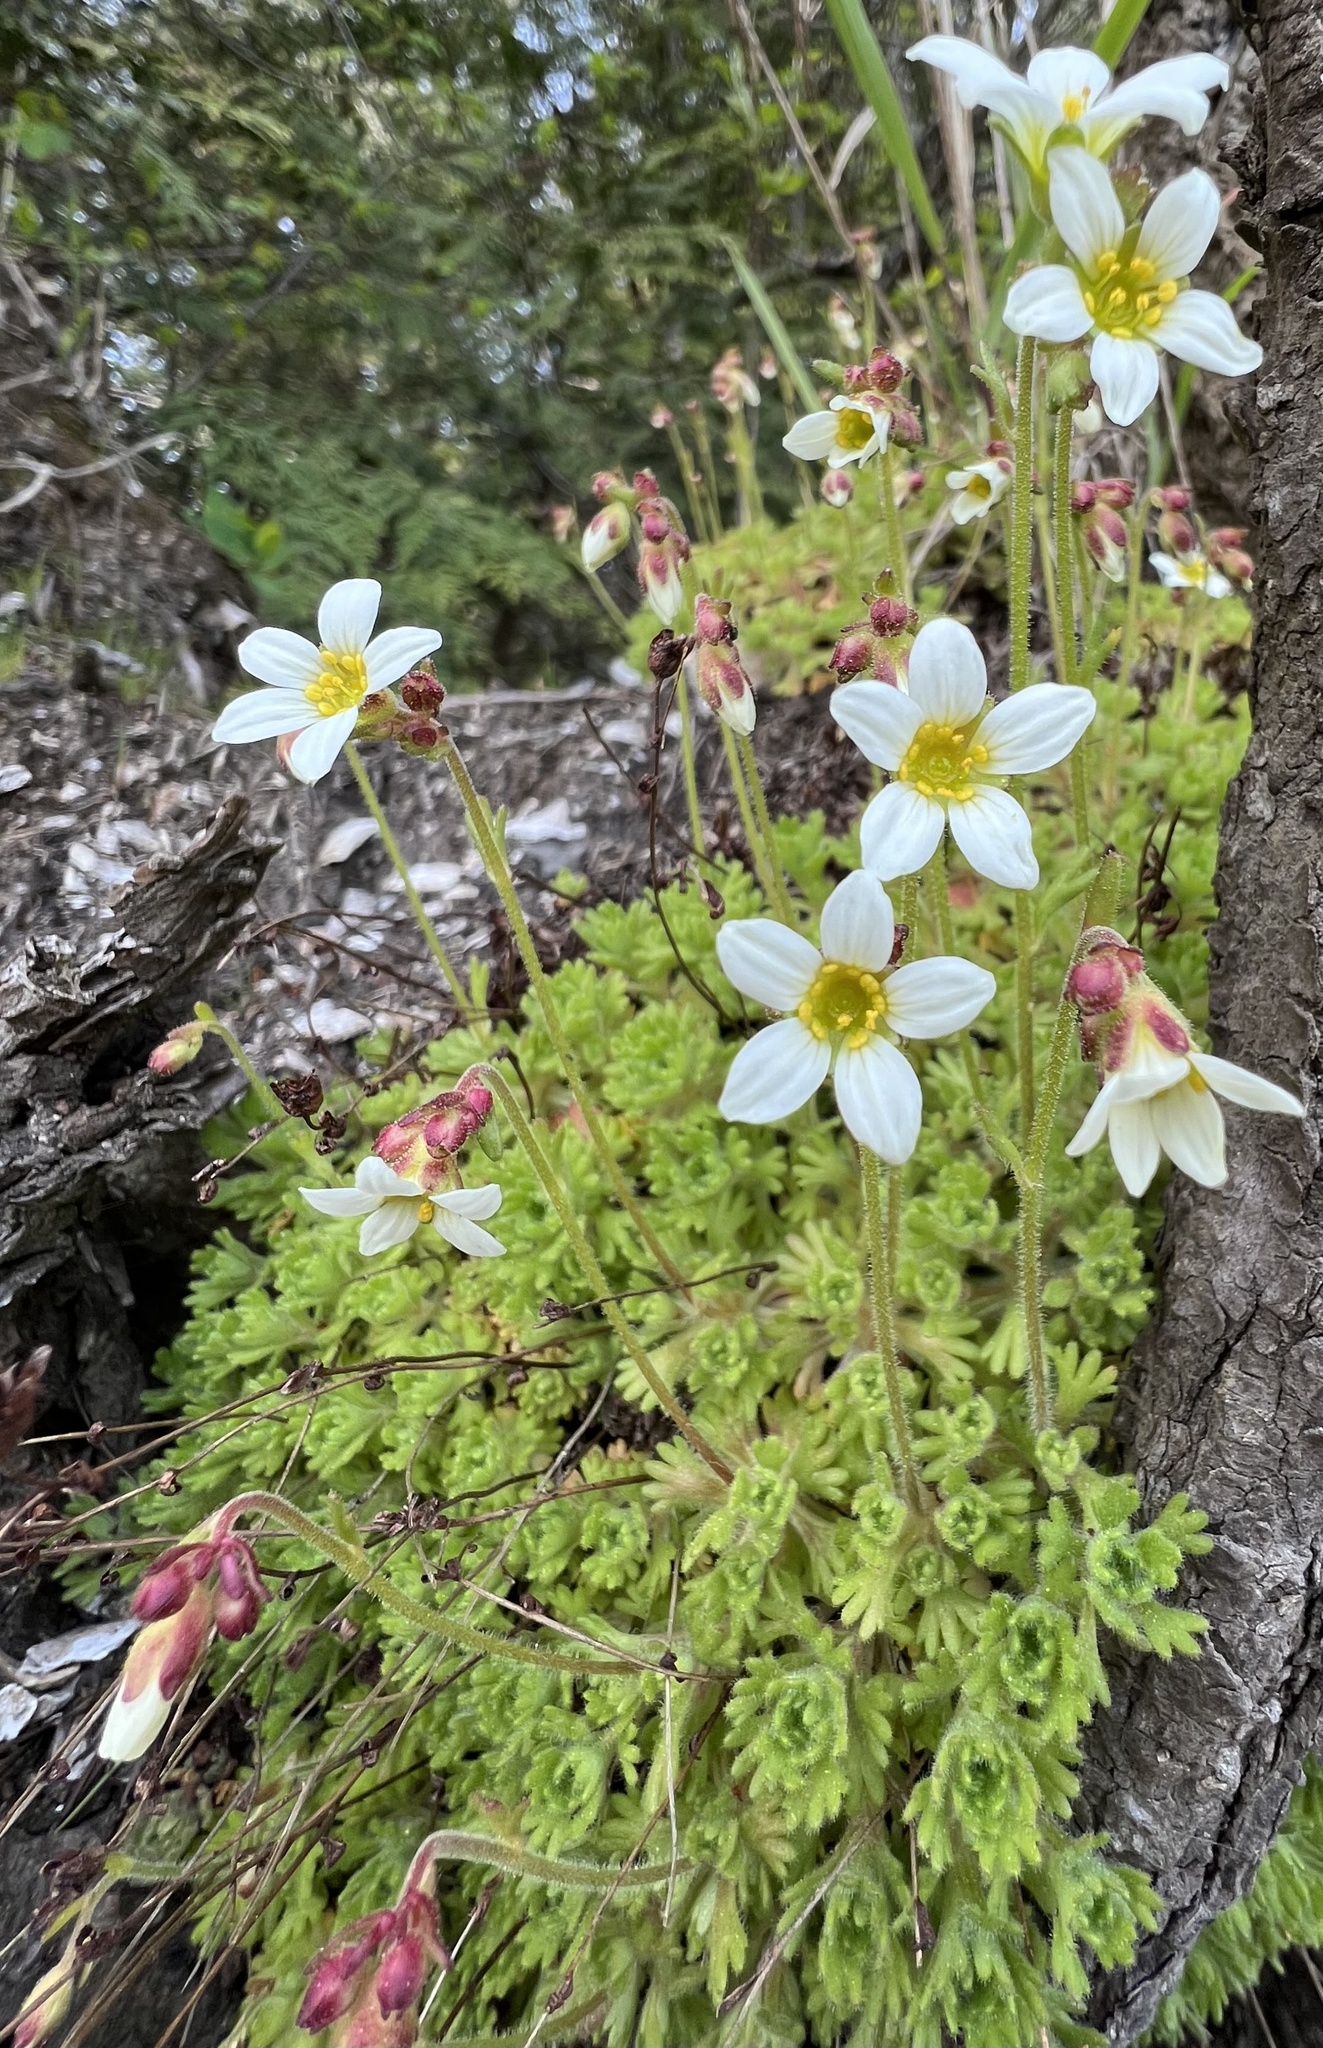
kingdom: Plantae
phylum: Tracheophyta
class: Magnoliopsida
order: Saxifragales
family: Saxifragaceae
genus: Saxifraga
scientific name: Saxifraga cespitosa
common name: Tufted saxifrage
